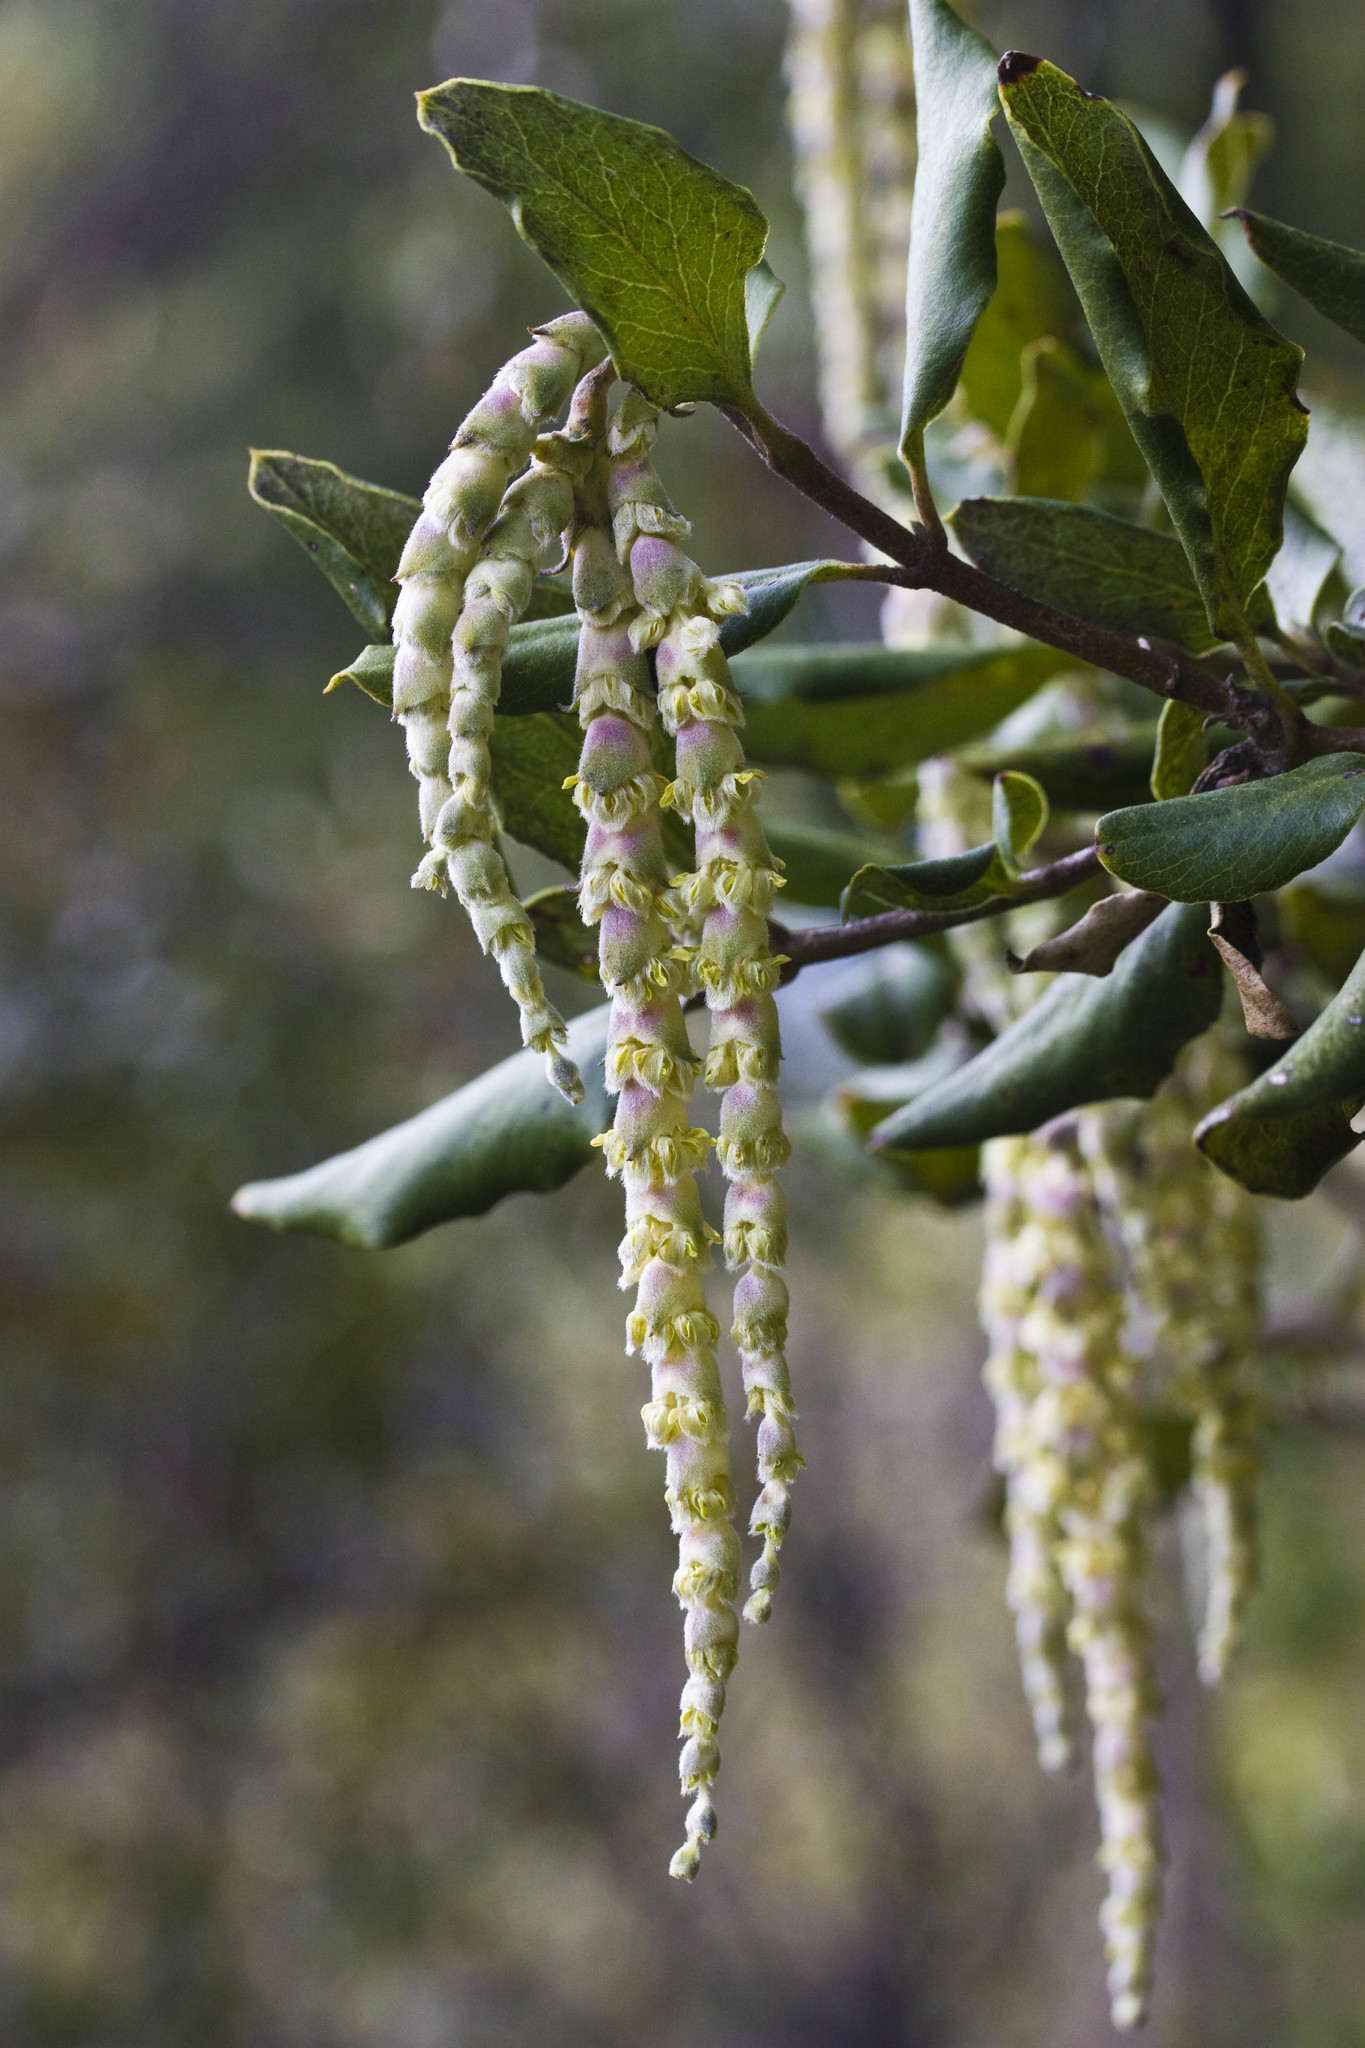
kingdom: Plantae
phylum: Tracheophyta
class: Magnoliopsida
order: Garryales
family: Garryaceae
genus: Garrya
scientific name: Garrya elliptica
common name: Silk-tassel
